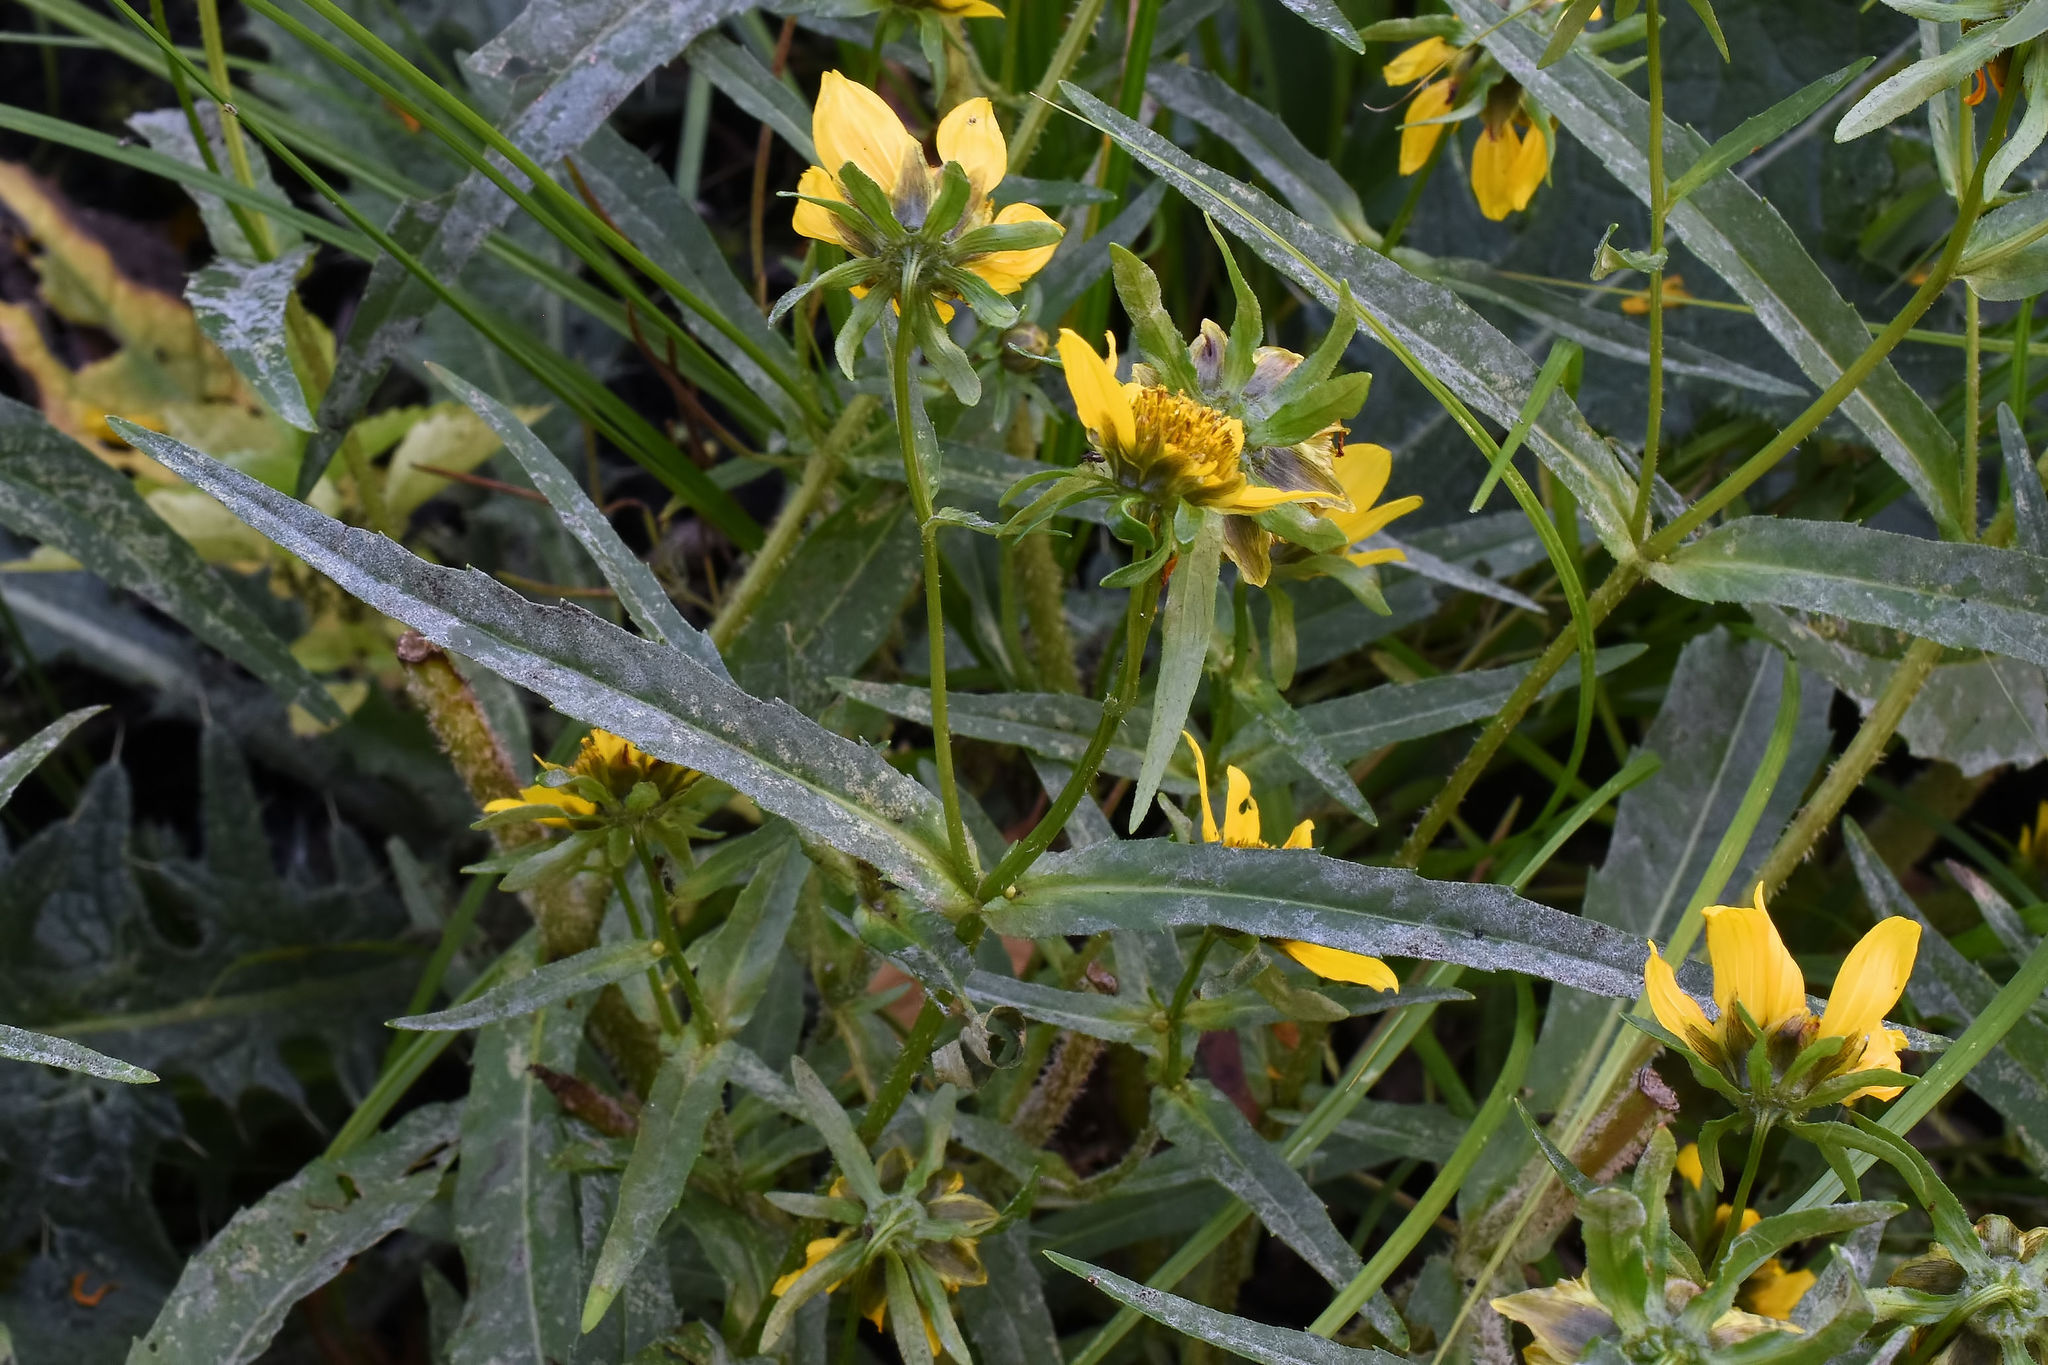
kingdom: Plantae
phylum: Tracheophyta
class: Magnoliopsida
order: Asterales
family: Asteraceae
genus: Bidens
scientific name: Bidens cernua
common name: Nodding bur-marigold
